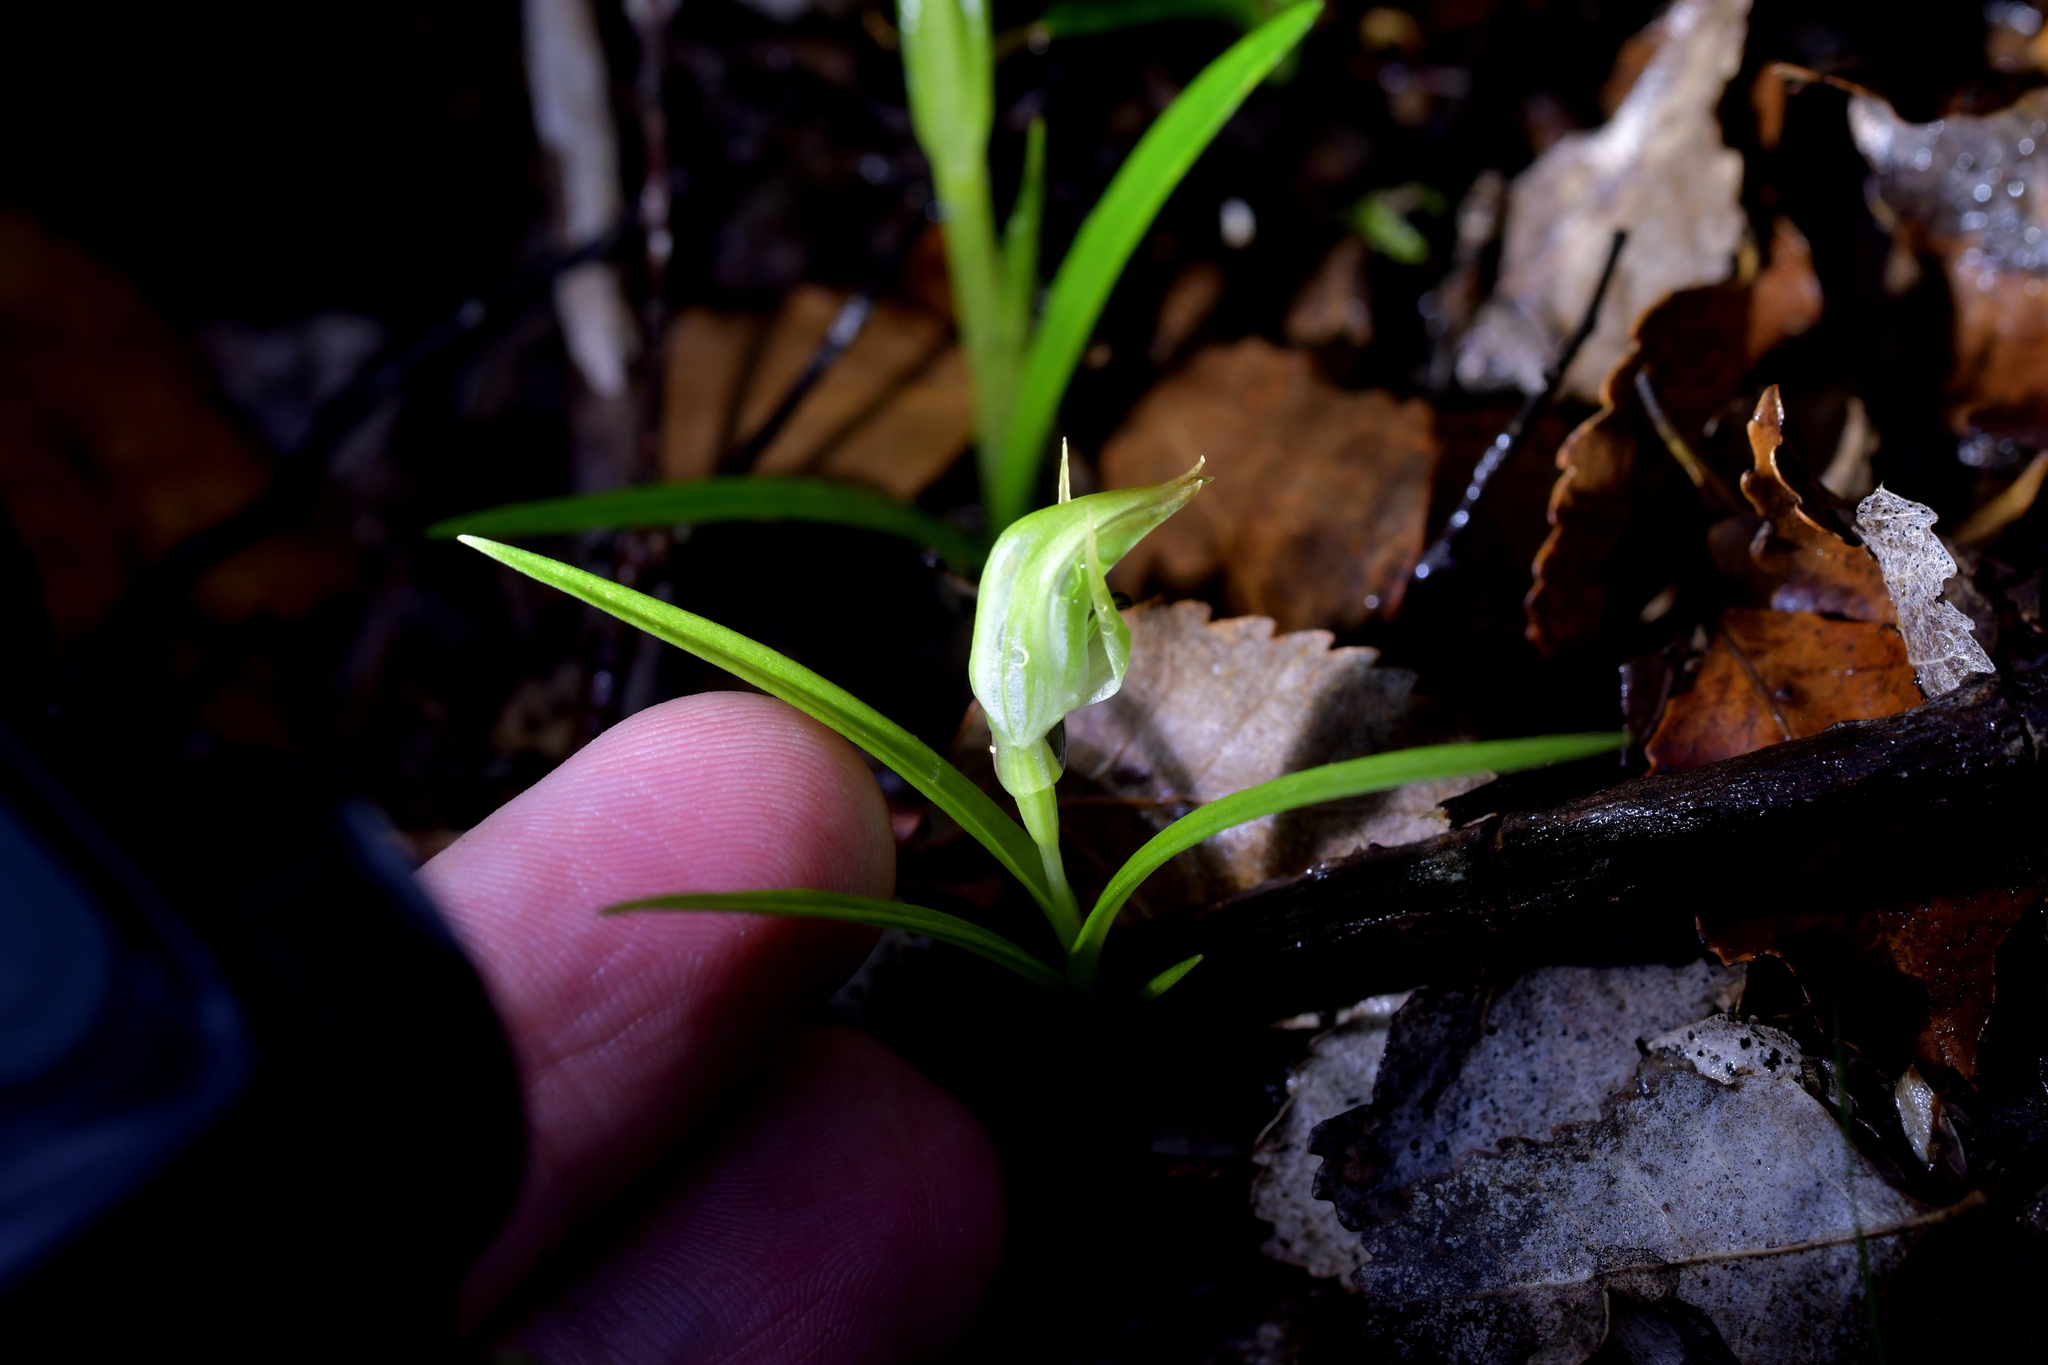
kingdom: Plantae
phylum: Tracheophyta
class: Liliopsida
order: Asparagales
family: Orchidaceae
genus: Pterostylis
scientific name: Pterostylis graminea
